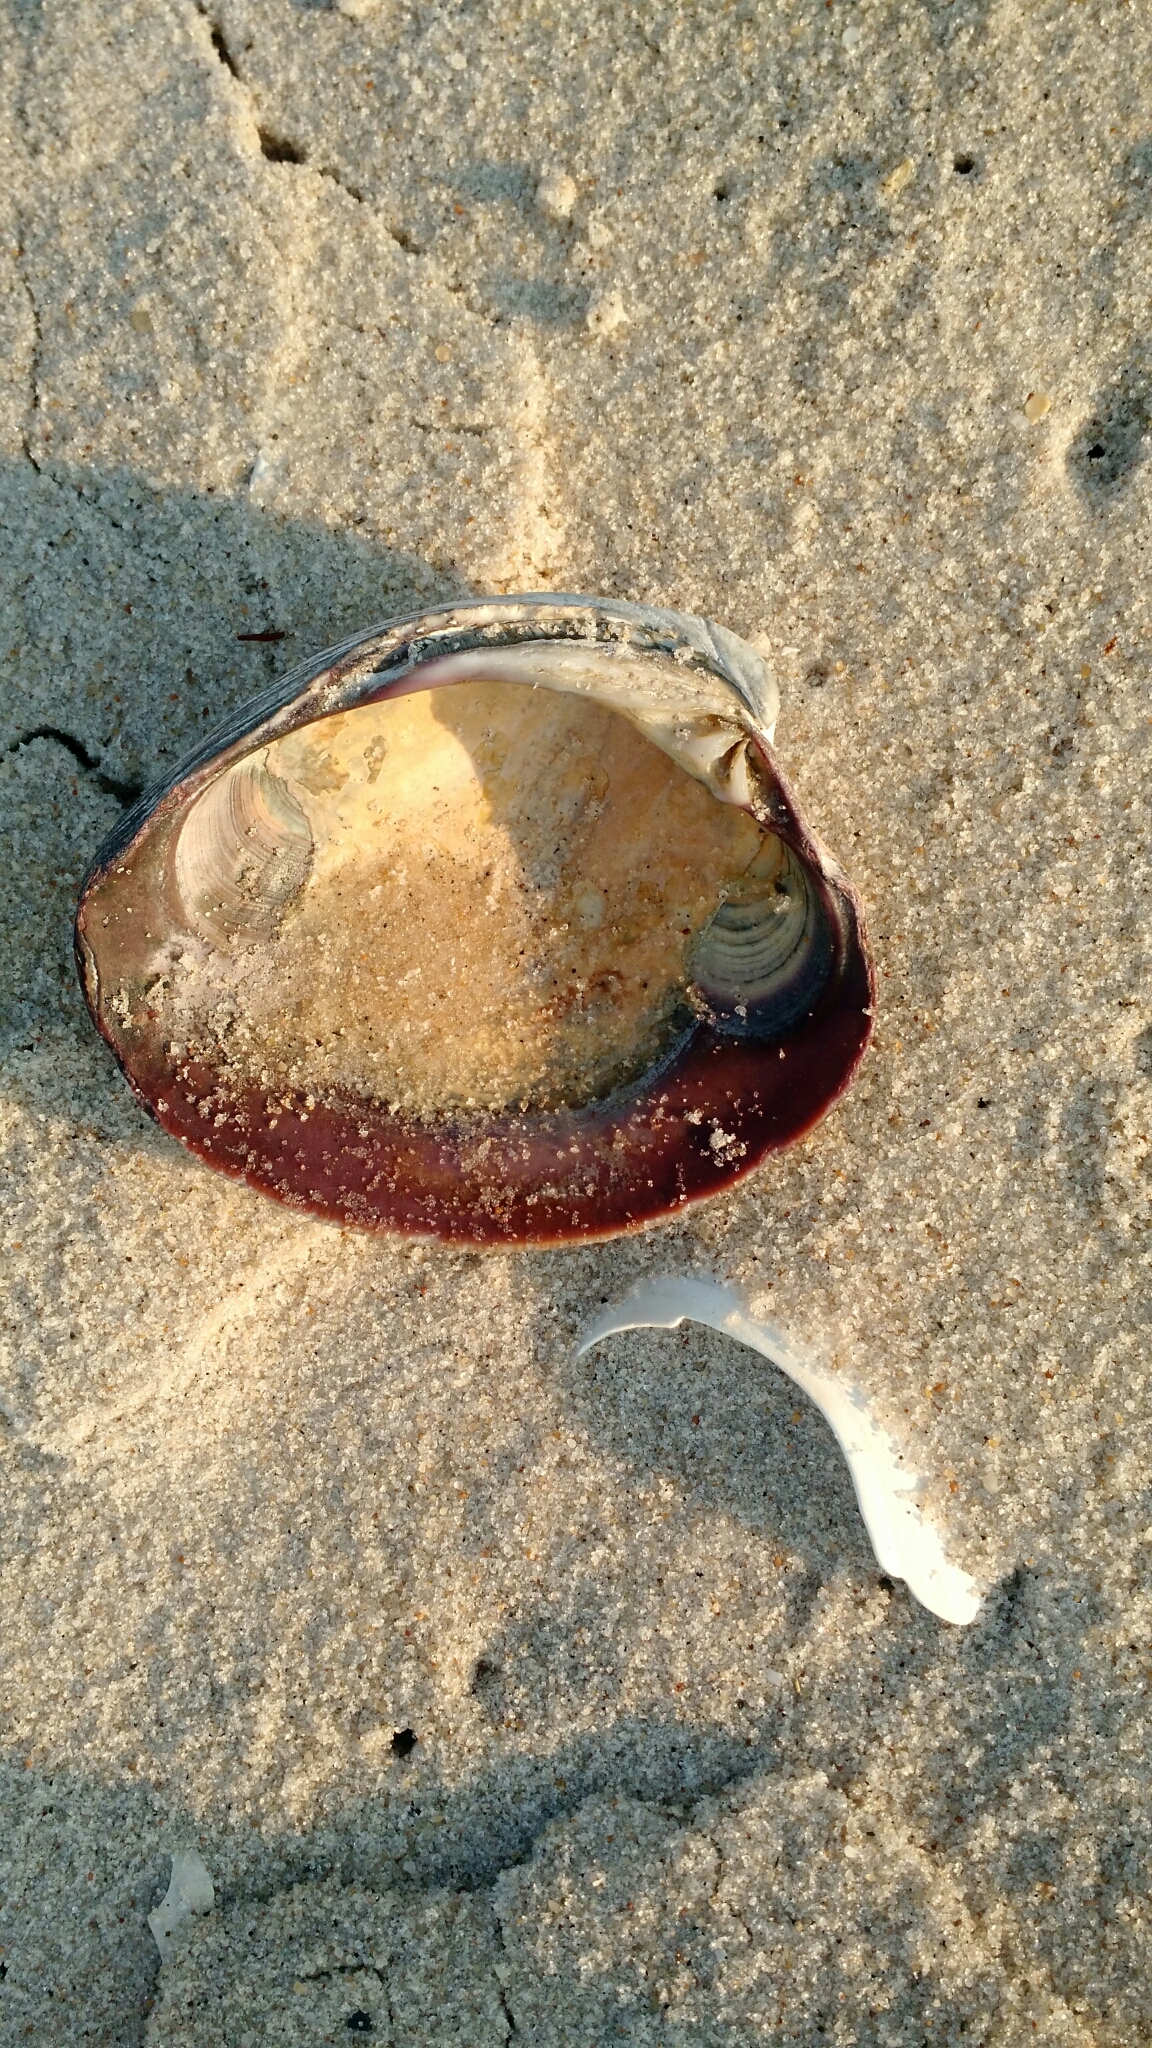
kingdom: Animalia
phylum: Mollusca
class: Bivalvia
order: Venerida
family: Veneridae
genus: Mercenaria
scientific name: Mercenaria mercenaria
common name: American hard-shelled clam
